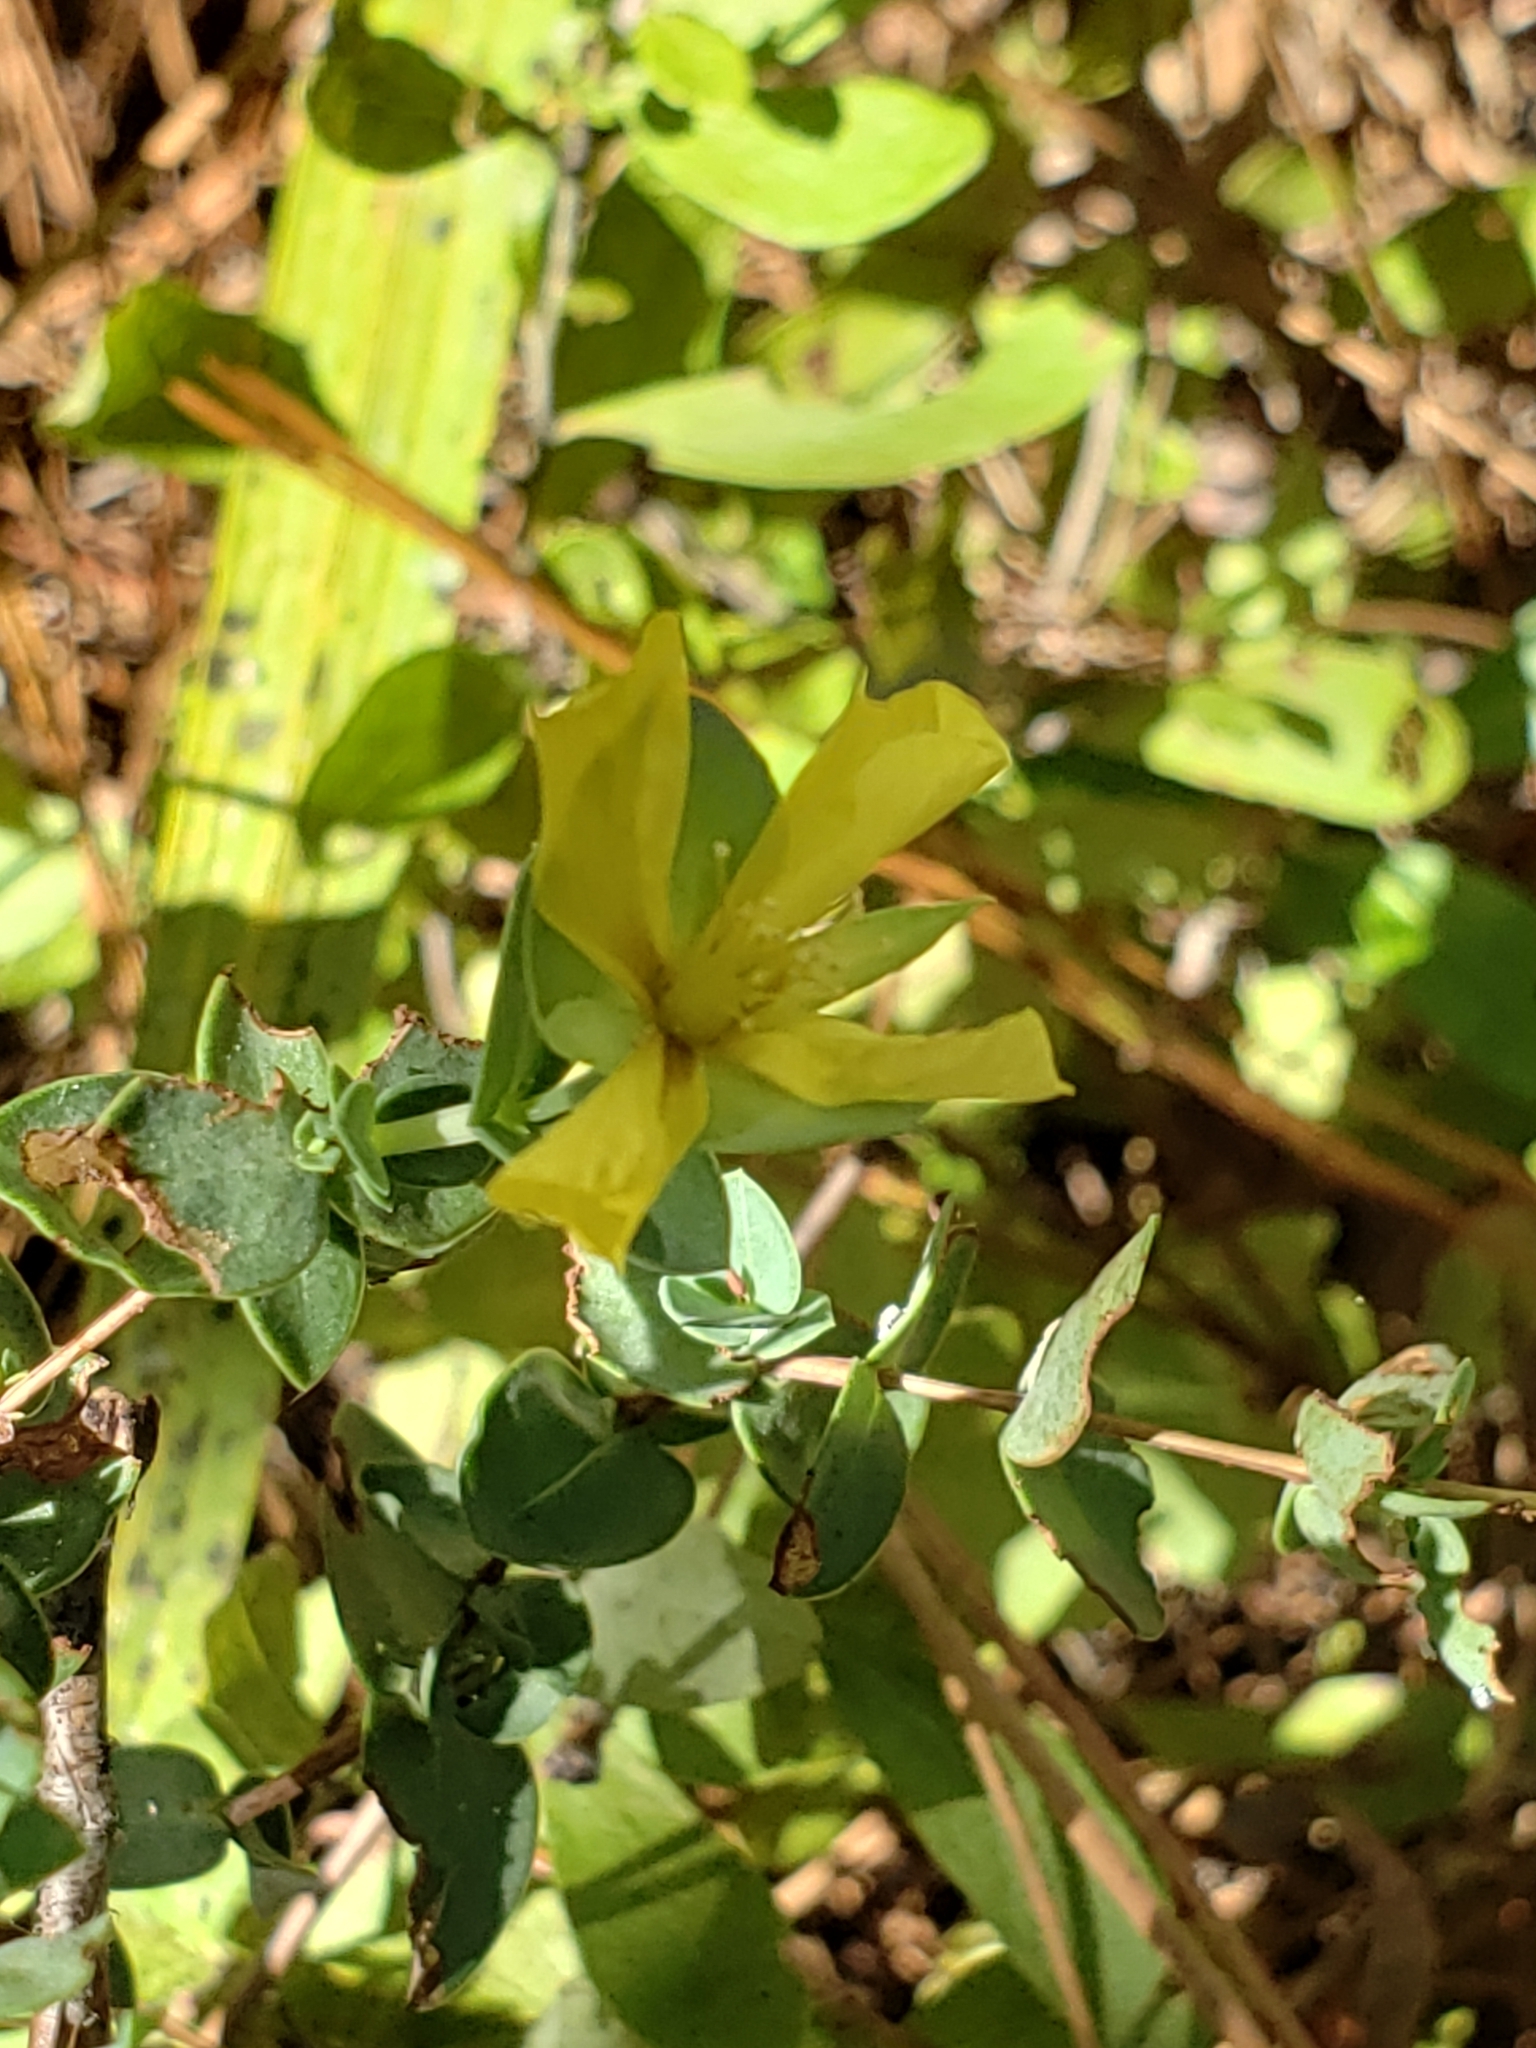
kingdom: Plantae
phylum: Tracheophyta
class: Magnoliopsida
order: Malpighiales
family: Hypericaceae
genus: Hypericum
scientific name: Hypericum tetrapetalum
